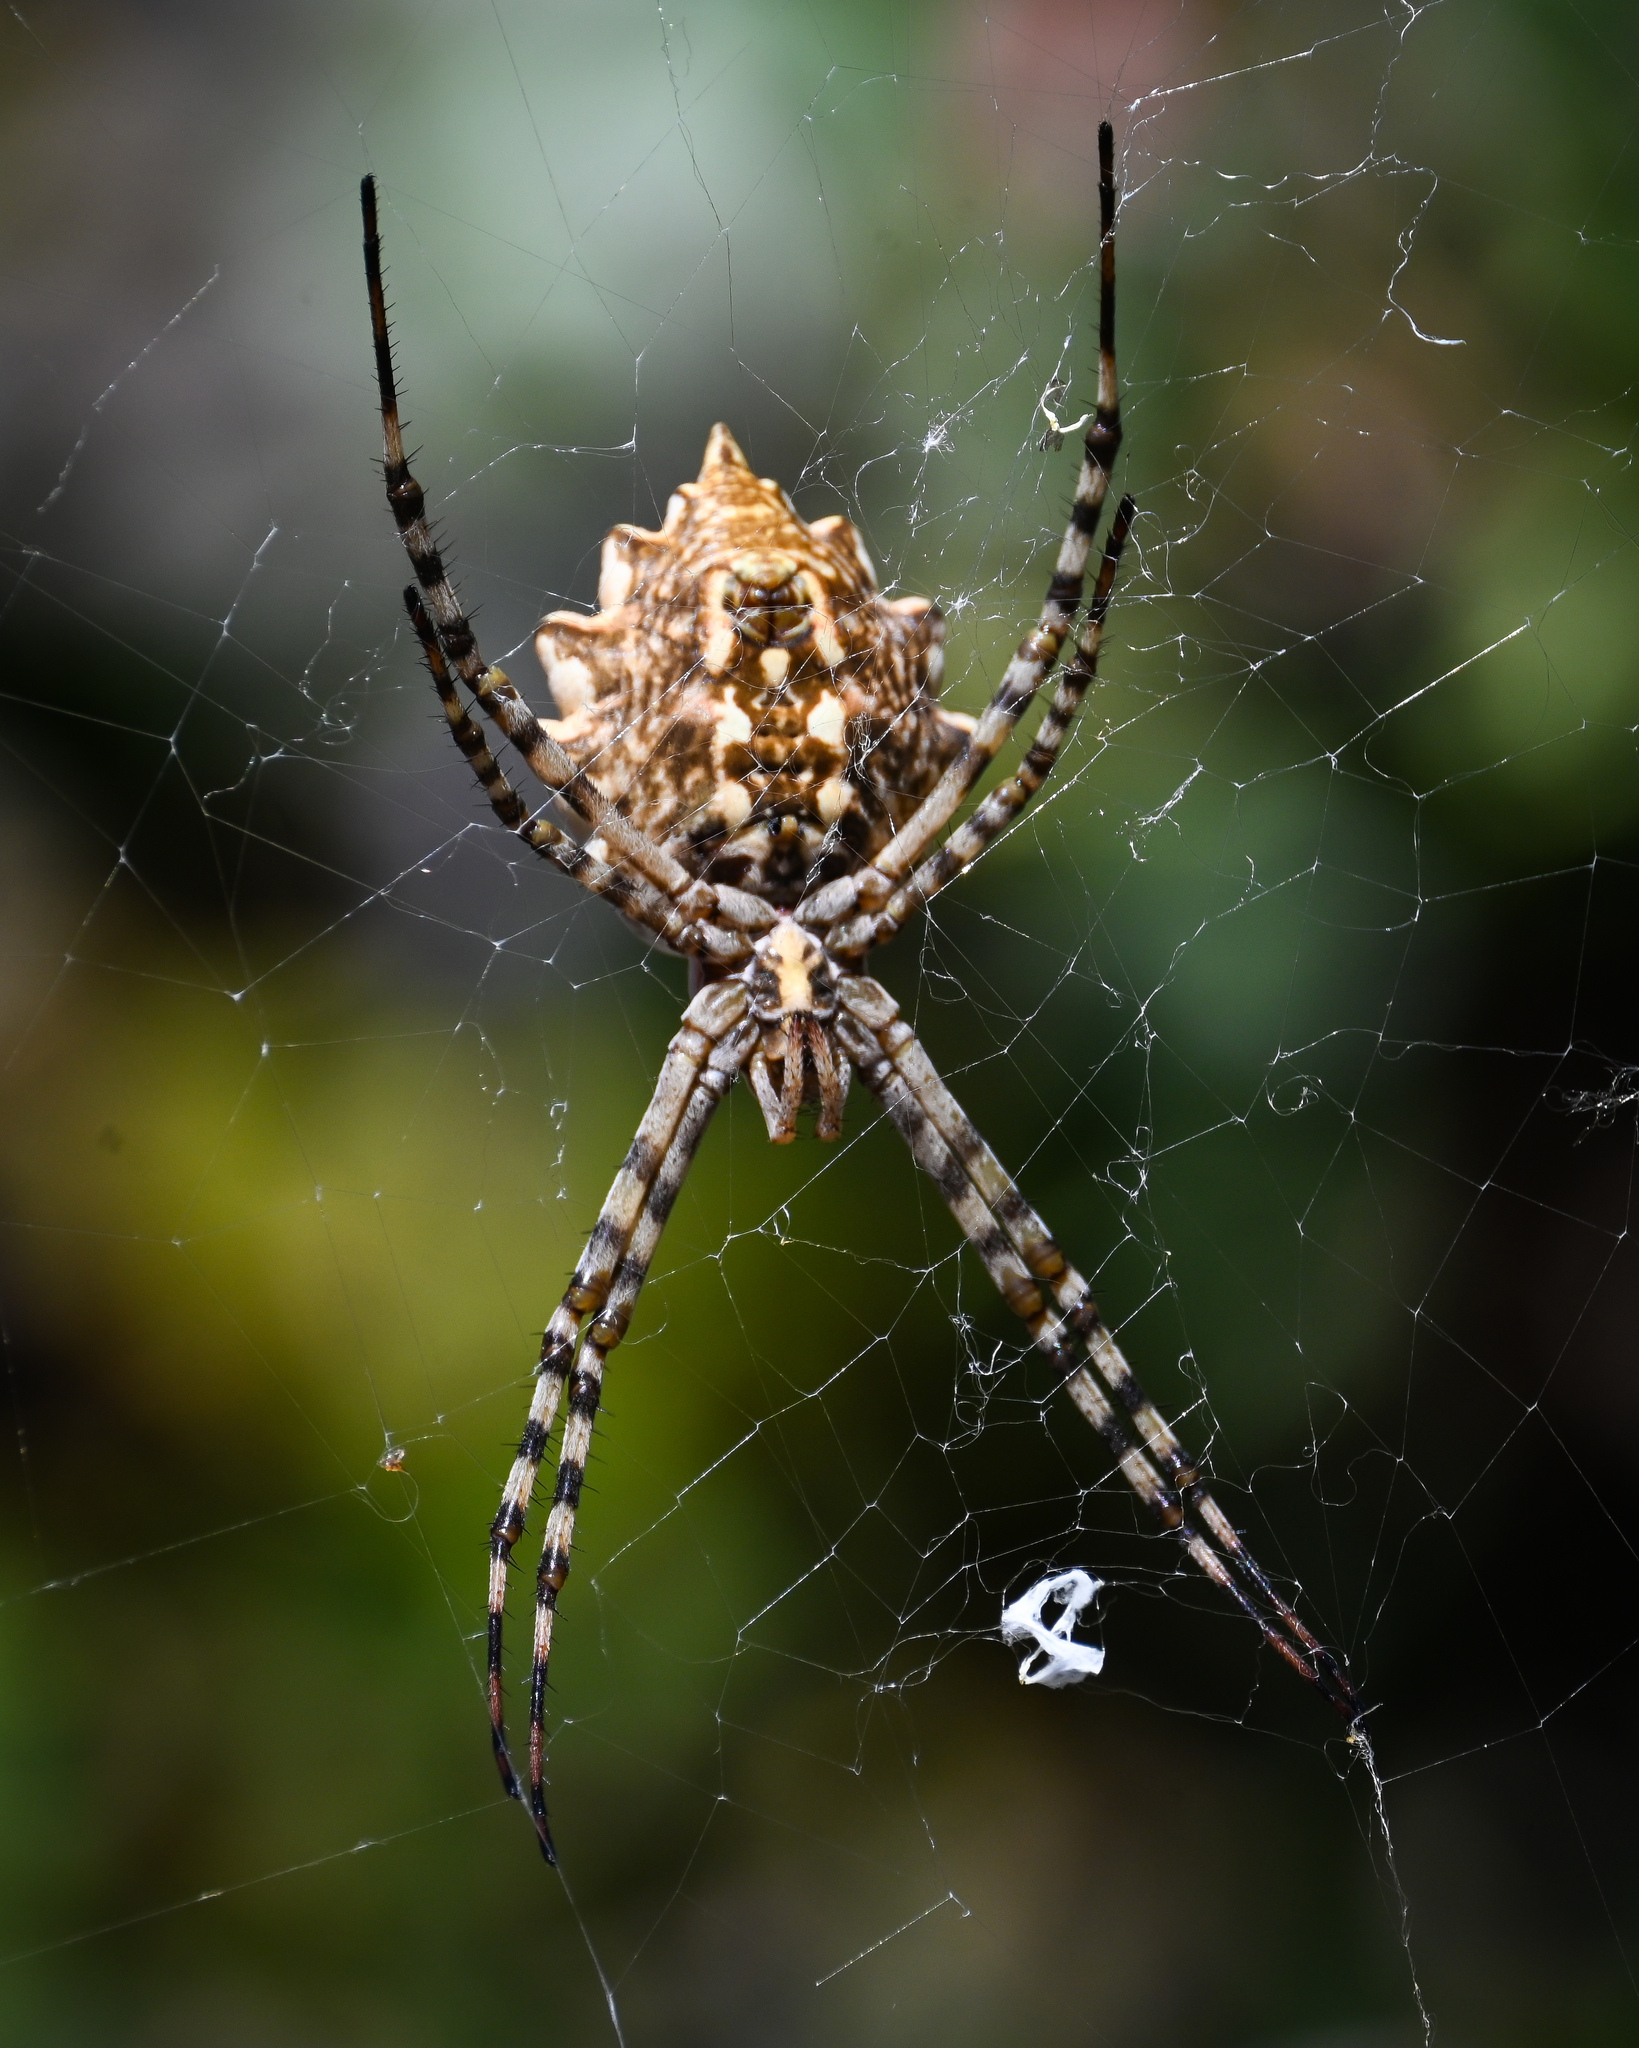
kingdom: Animalia
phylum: Arthropoda
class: Arachnida
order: Araneae
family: Araneidae
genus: Argiope
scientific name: Argiope lobata
